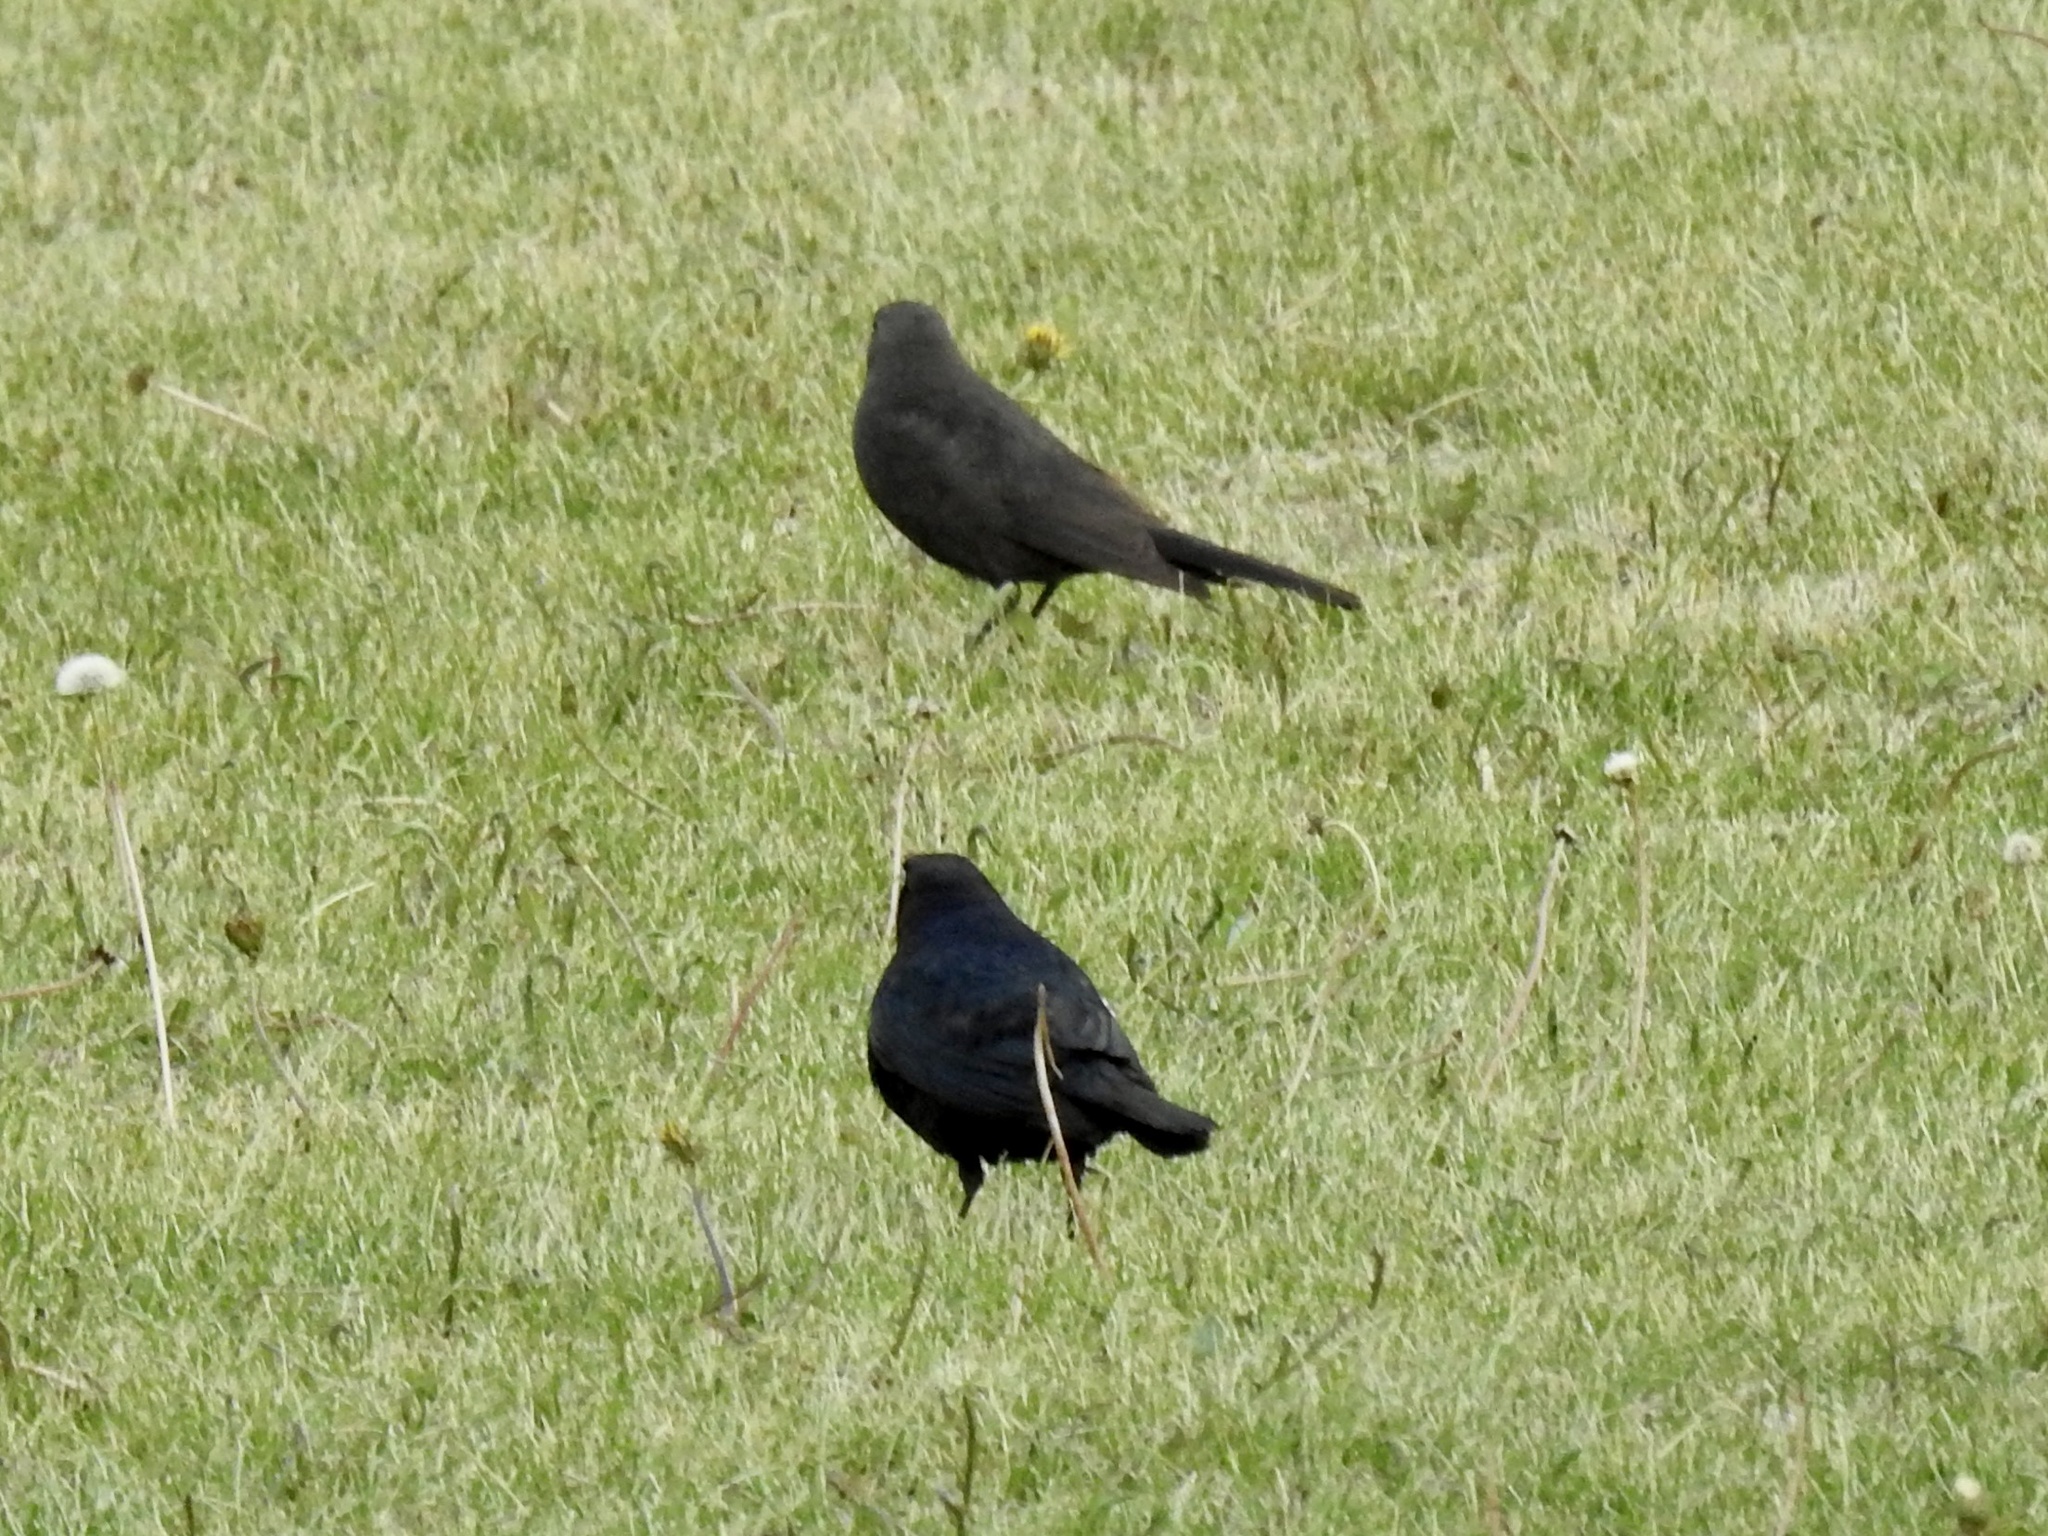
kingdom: Animalia
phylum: Chordata
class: Aves
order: Passeriformes
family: Icteridae
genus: Euphagus
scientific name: Euphagus cyanocephalus
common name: Brewer's blackbird
